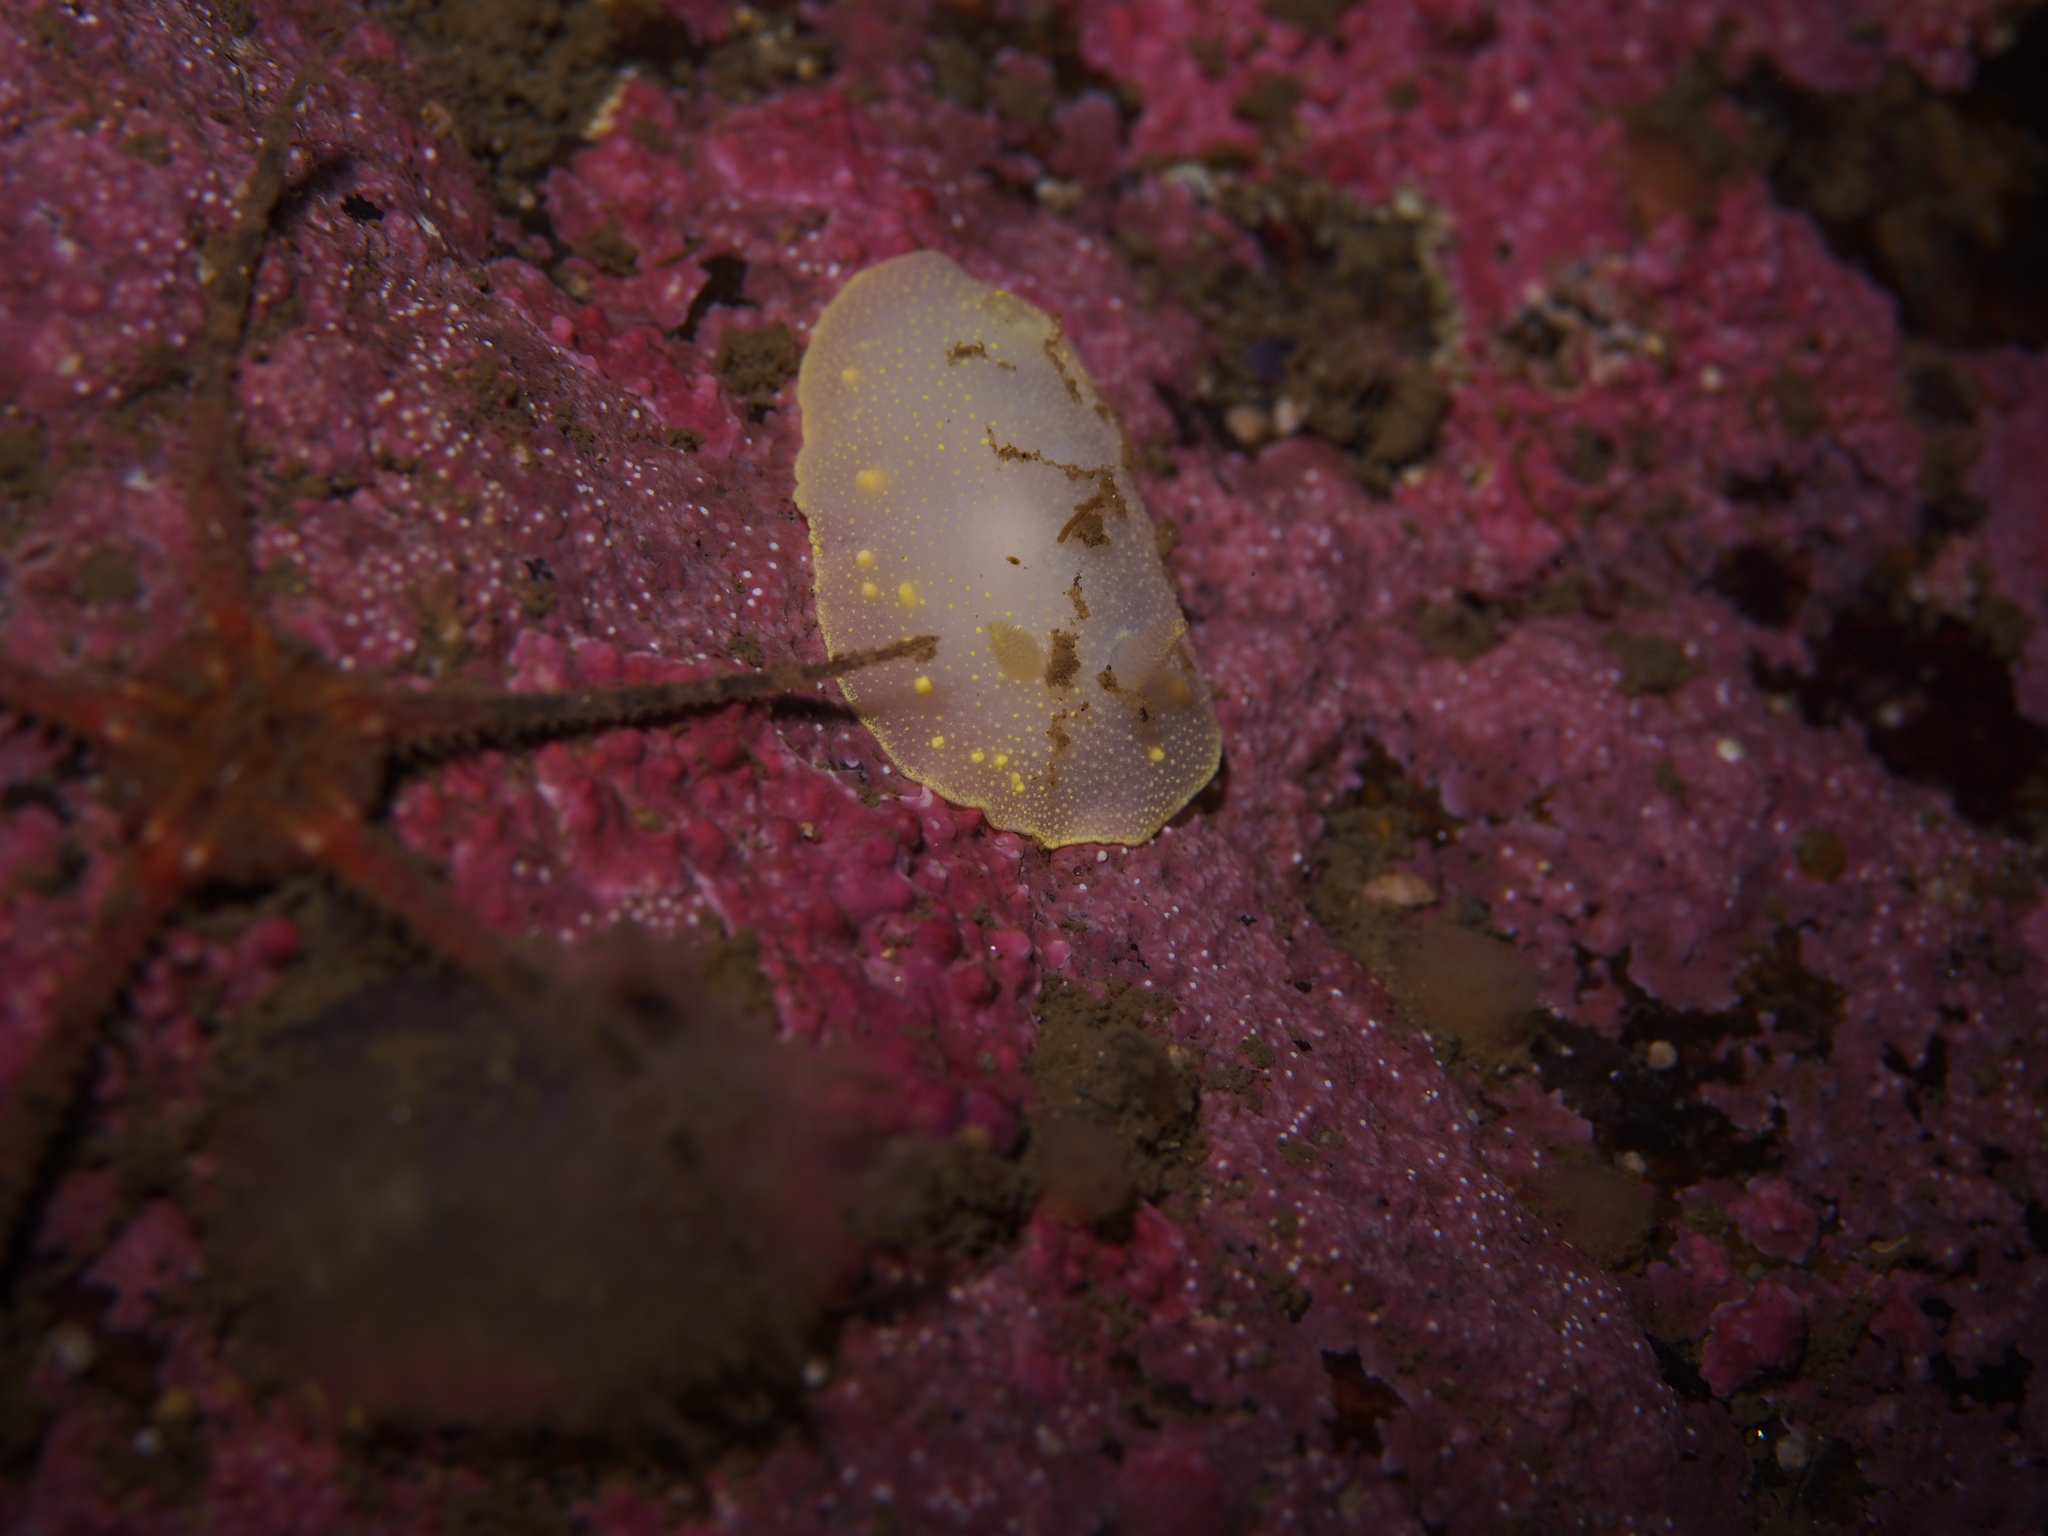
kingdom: Animalia
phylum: Mollusca
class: Gastropoda
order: Nudibranchia
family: Cadlinidae
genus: Cadlina
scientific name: Cadlina laevis
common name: White atlantic cadlina
